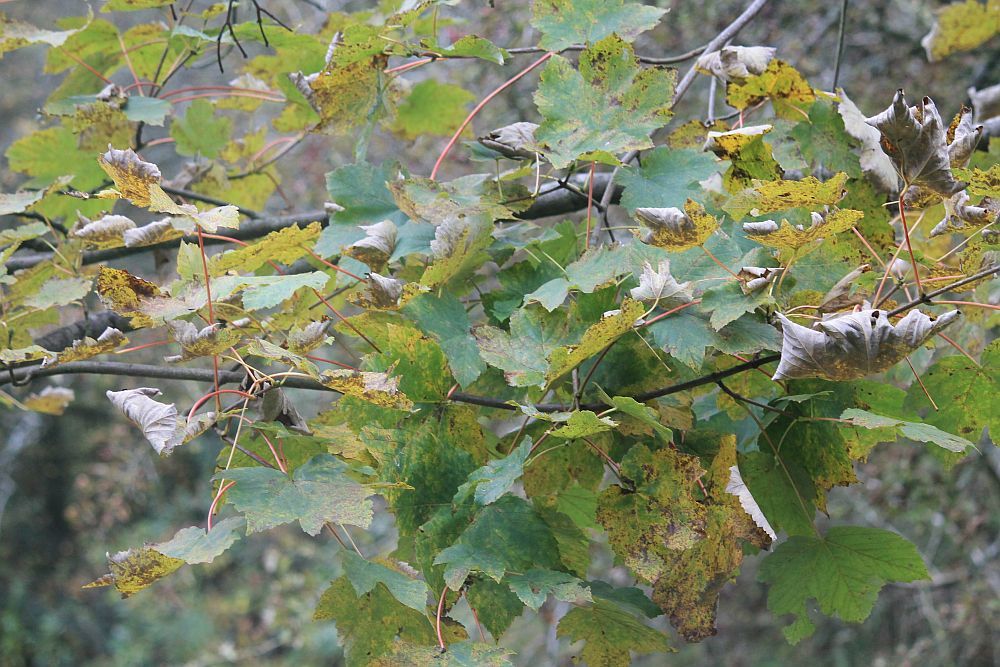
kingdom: Plantae
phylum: Tracheophyta
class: Magnoliopsida
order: Sapindales
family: Sapindaceae
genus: Acer
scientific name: Acer pseudoplatanus
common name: Sycamore
